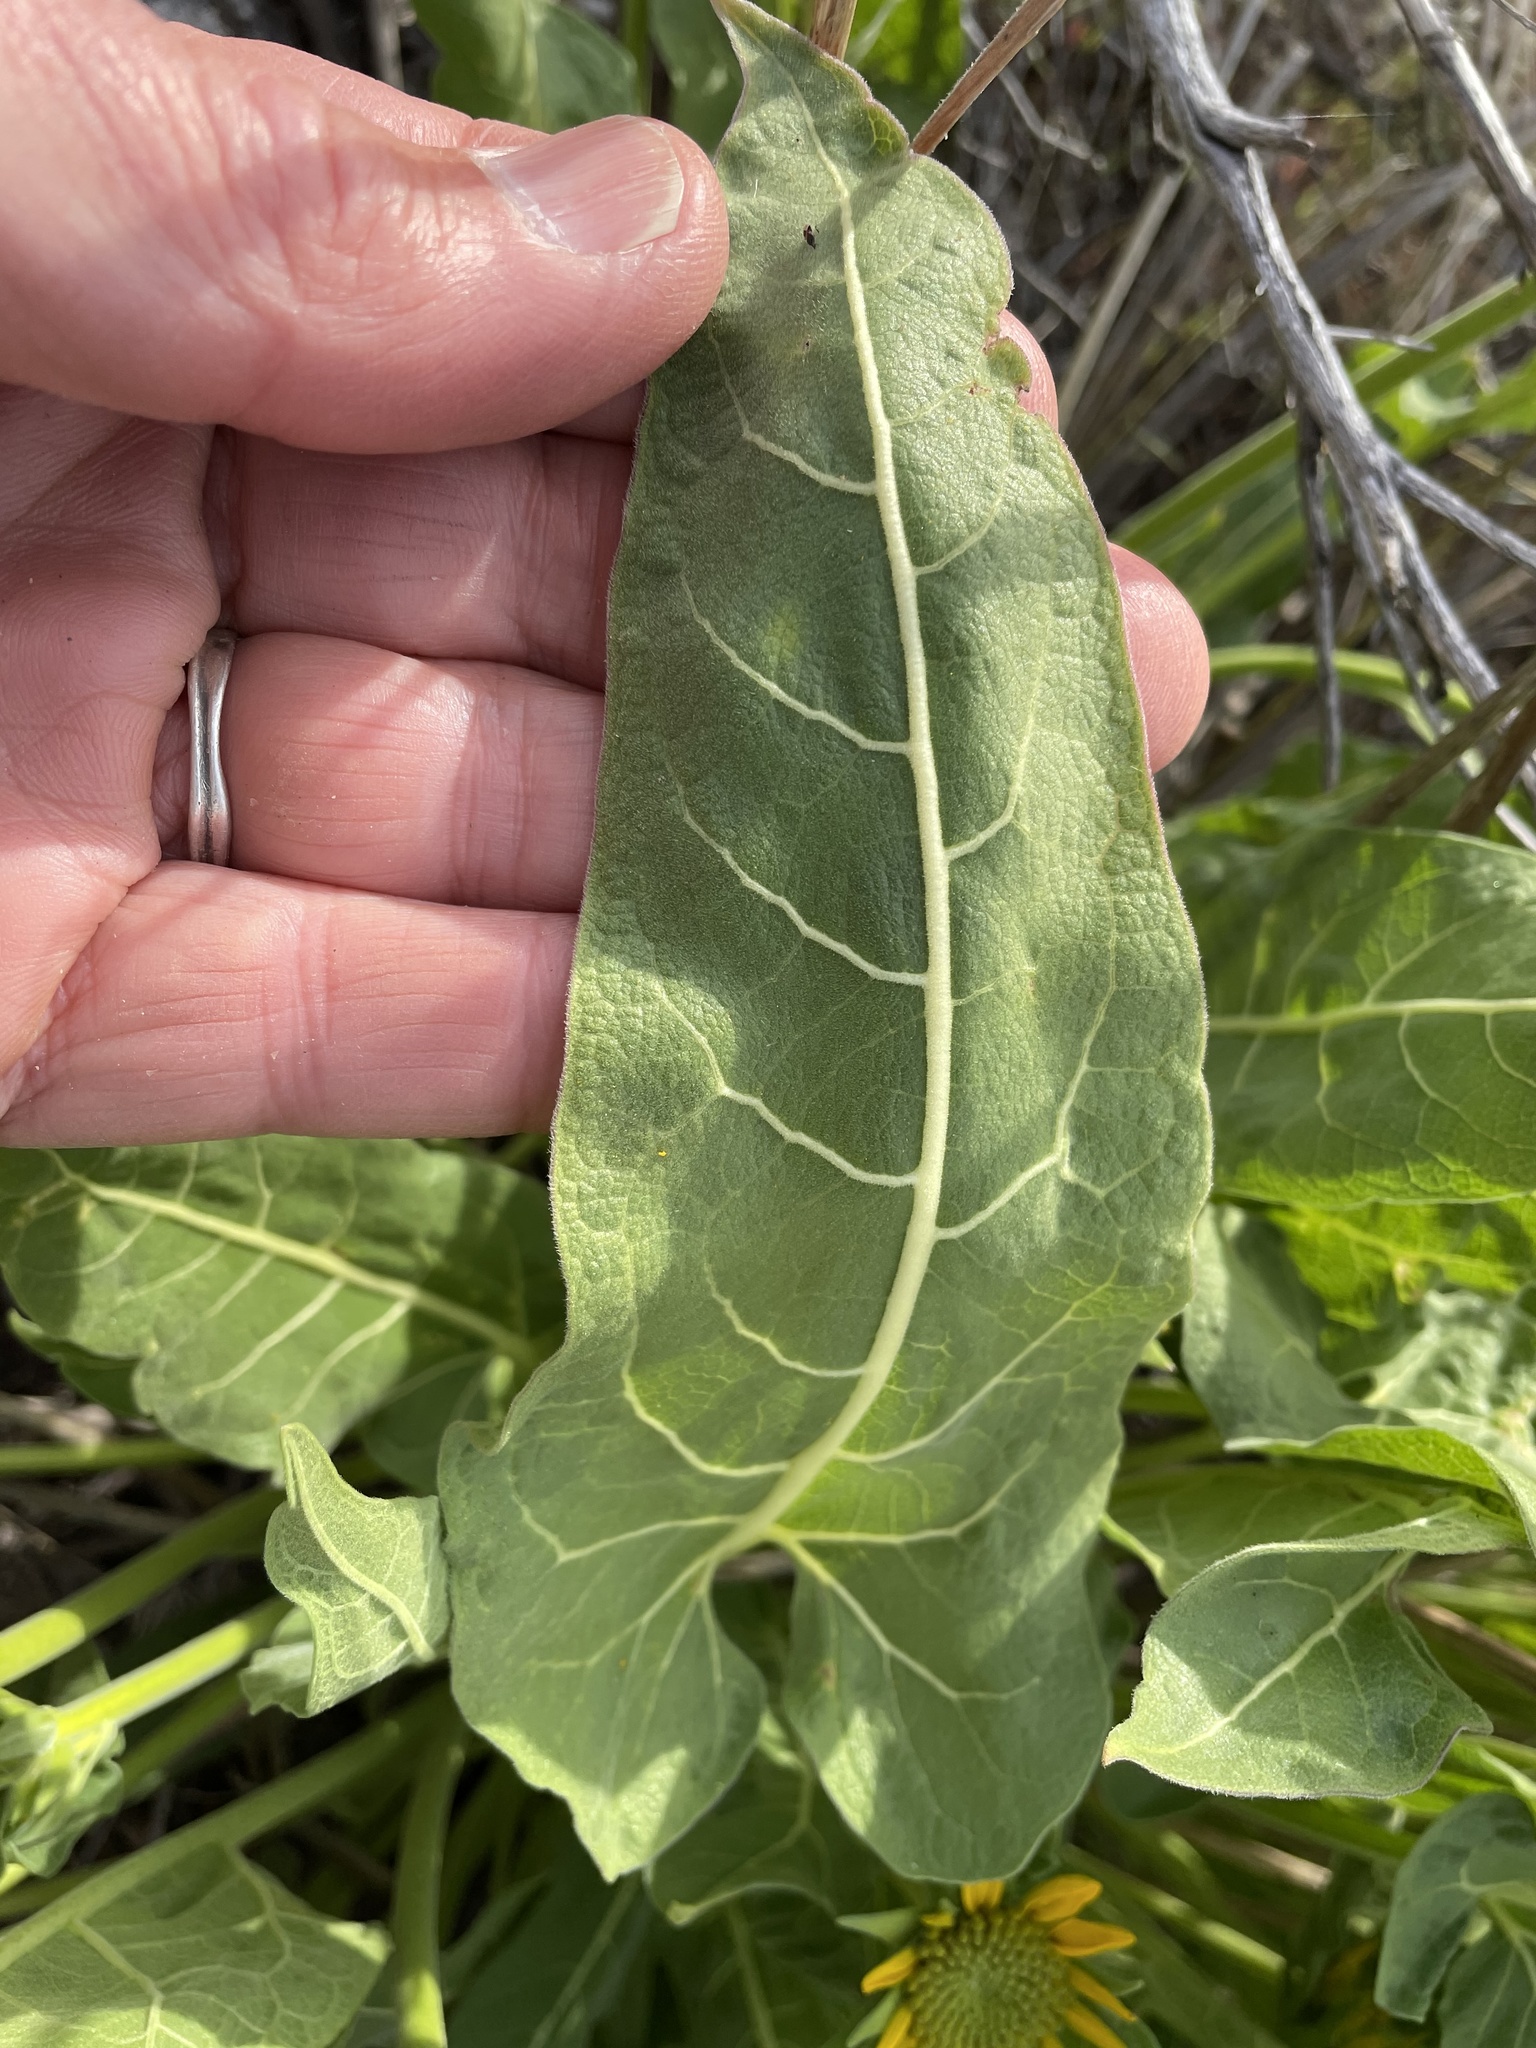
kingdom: Plantae
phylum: Tracheophyta
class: Magnoliopsida
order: Asterales
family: Asteraceae
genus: Balsamorhiza
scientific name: Balsamorhiza careyana
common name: Carey's balsamroot
